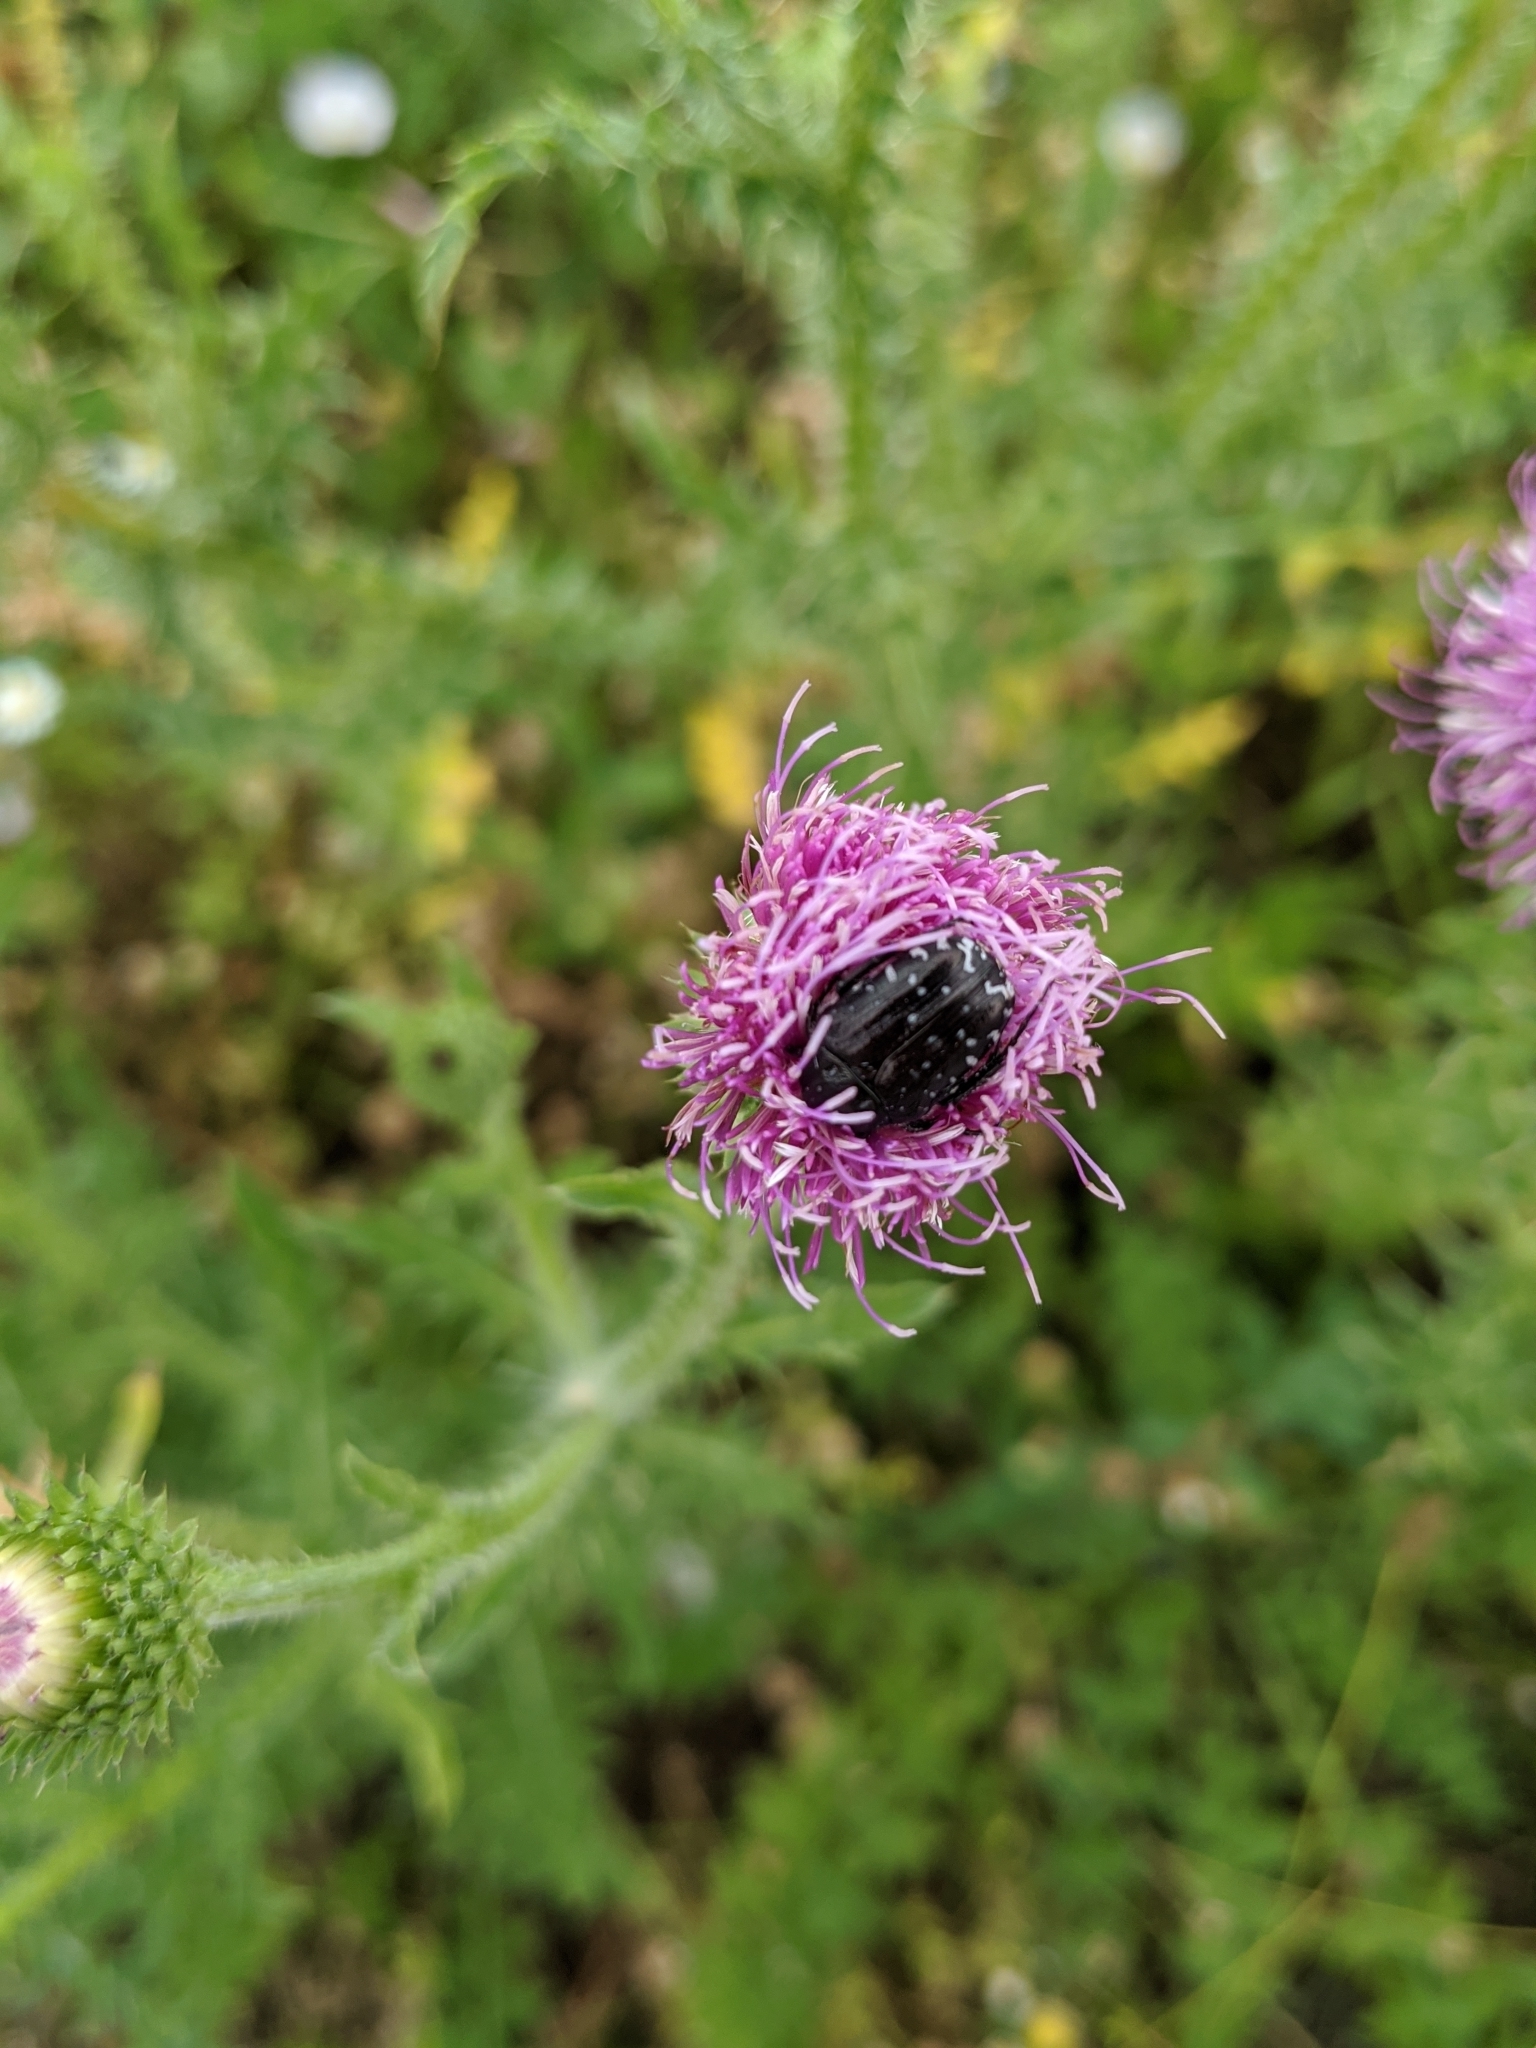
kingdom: Animalia
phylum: Arthropoda
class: Insecta
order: Coleoptera
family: Scarabaeidae
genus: Oxythyrea
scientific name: Oxythyrea funesta
